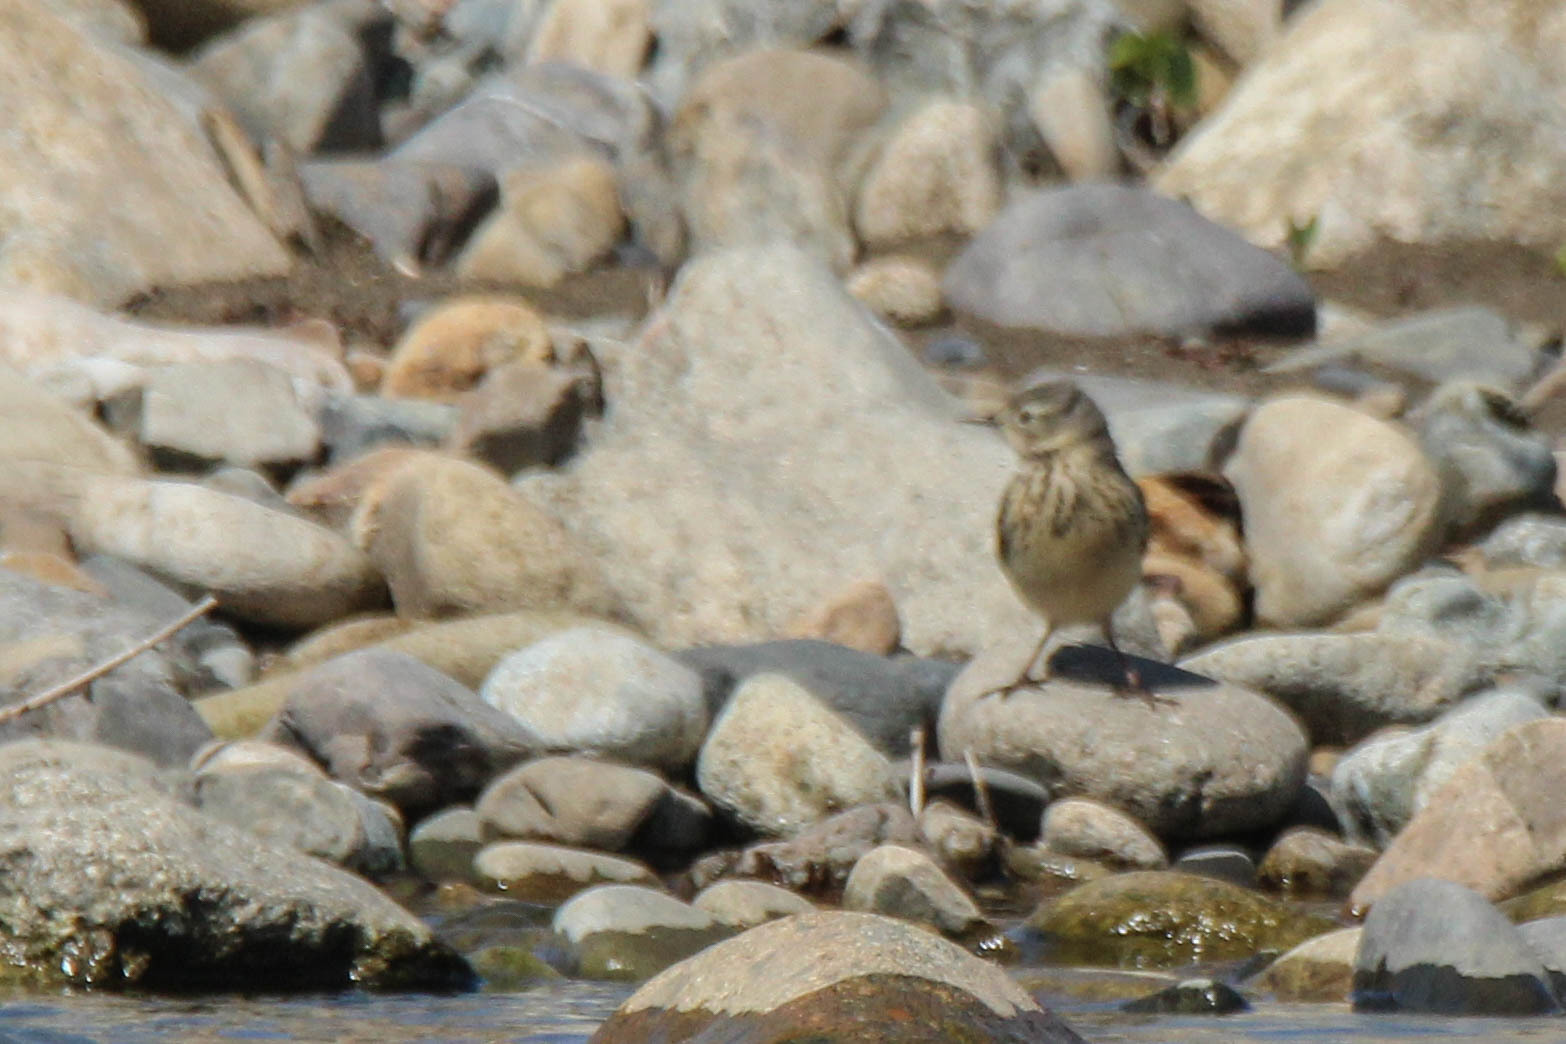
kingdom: Animalia
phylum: Chordata
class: Aves
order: Passeriformes
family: Motacillidae
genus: Anthus
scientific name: Anthus rubescens
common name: Buff-bellied pipit
